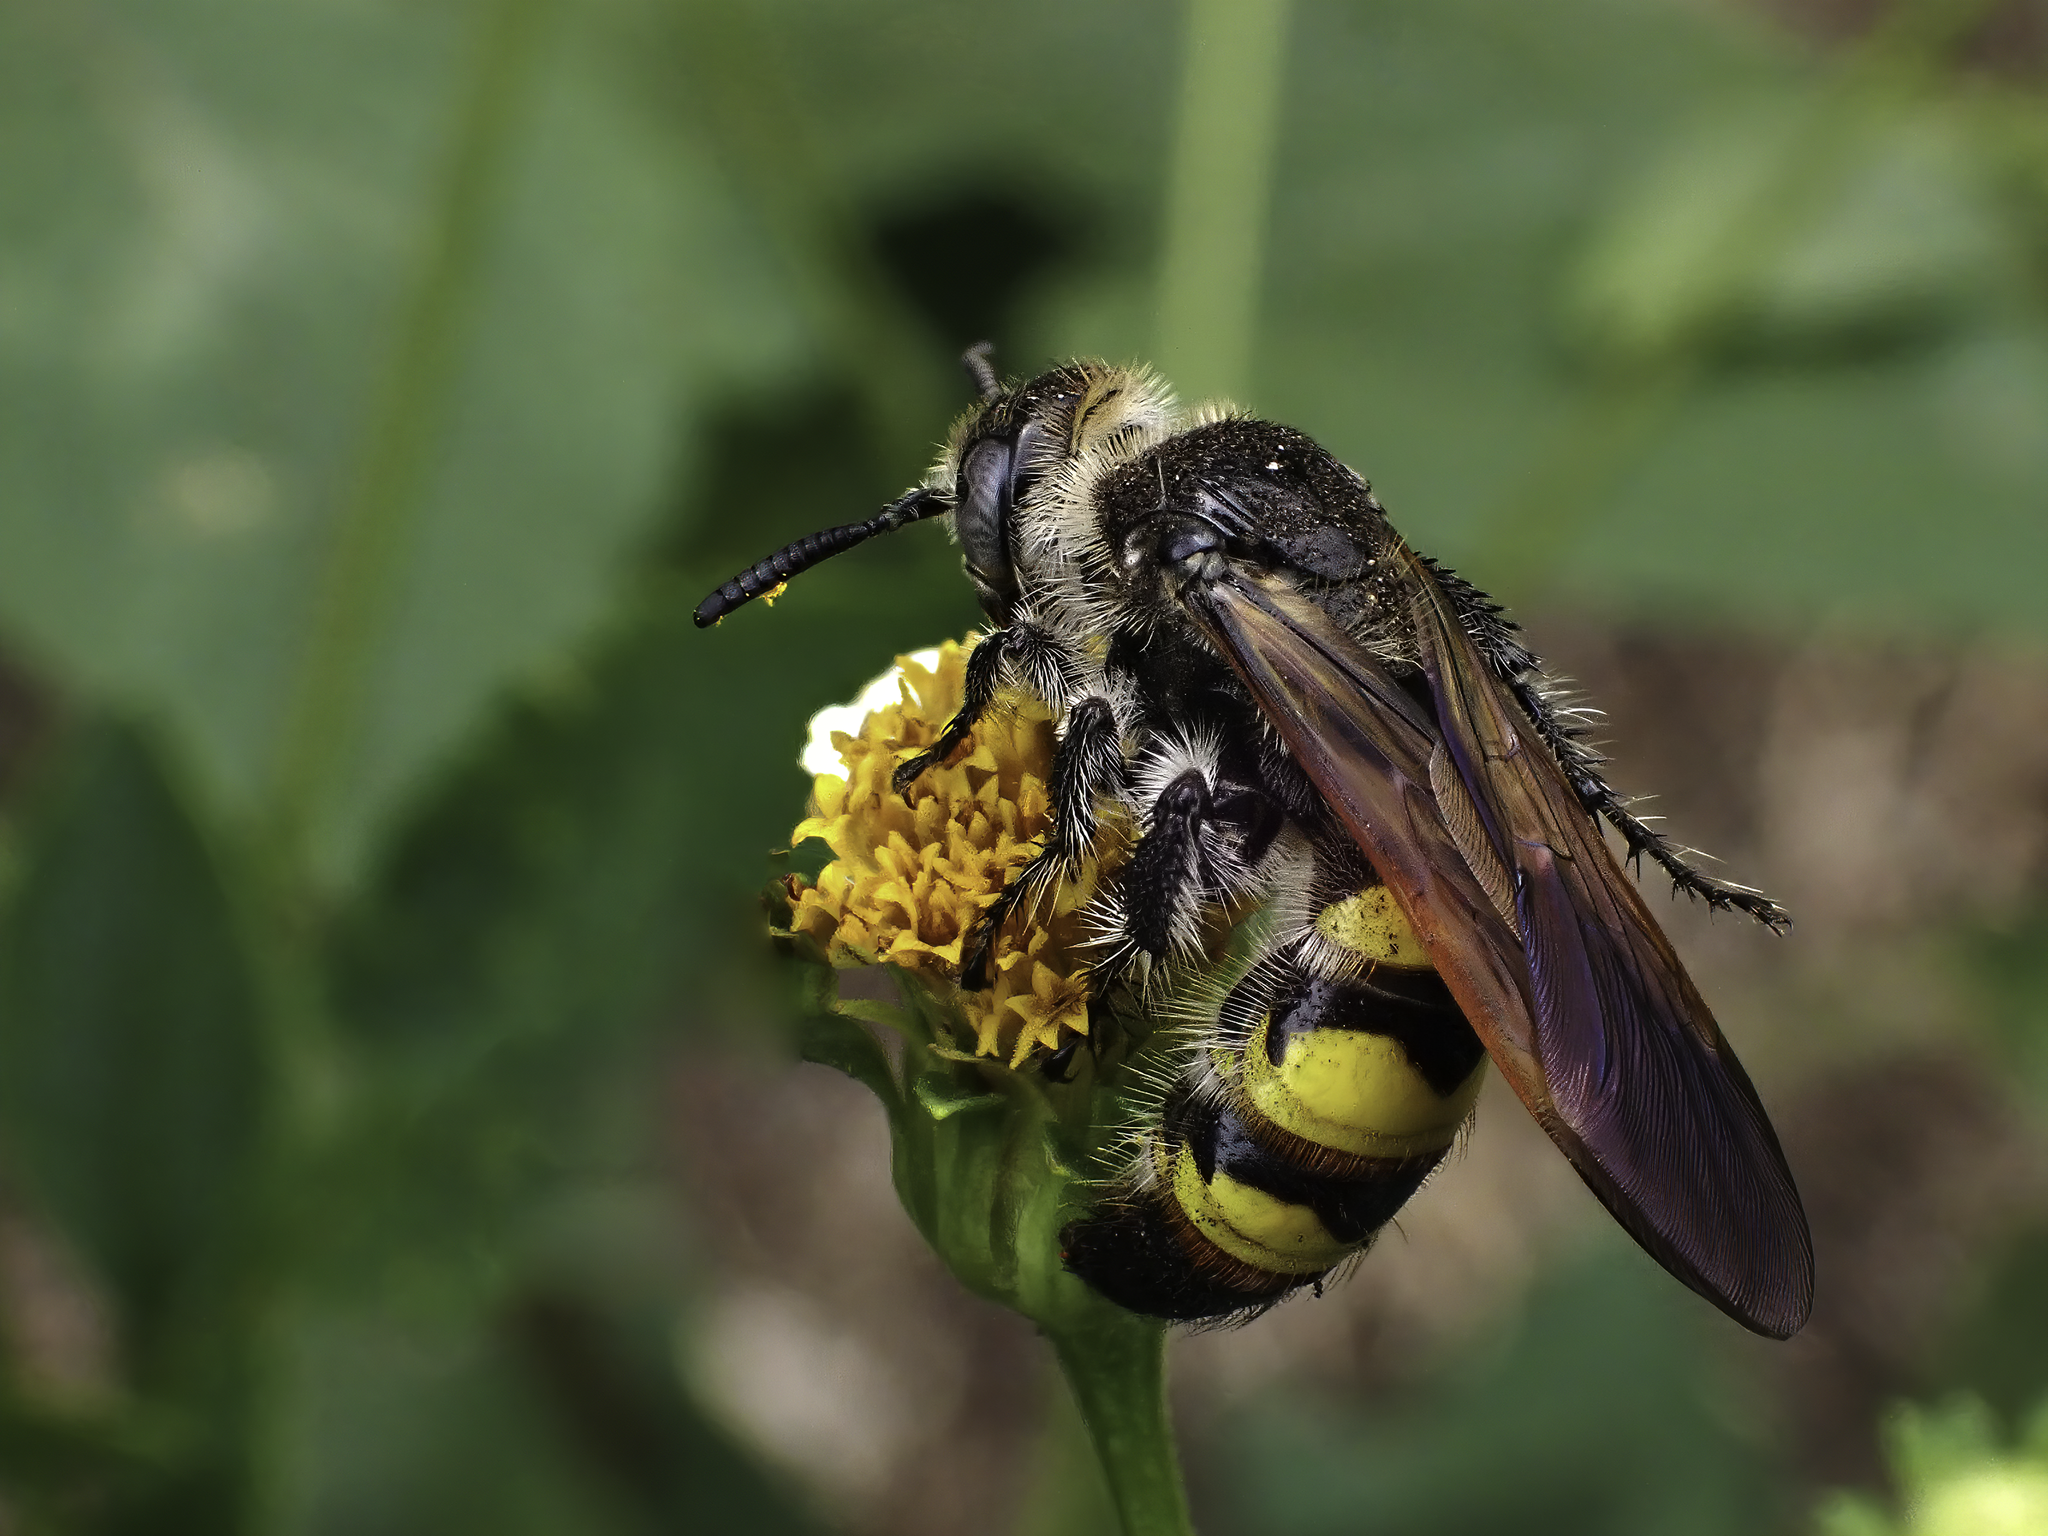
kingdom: Animalia
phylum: Arthropoda
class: Insecta
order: Hymenoptera
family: Scoliidae
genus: Dielis
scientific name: Dielis
